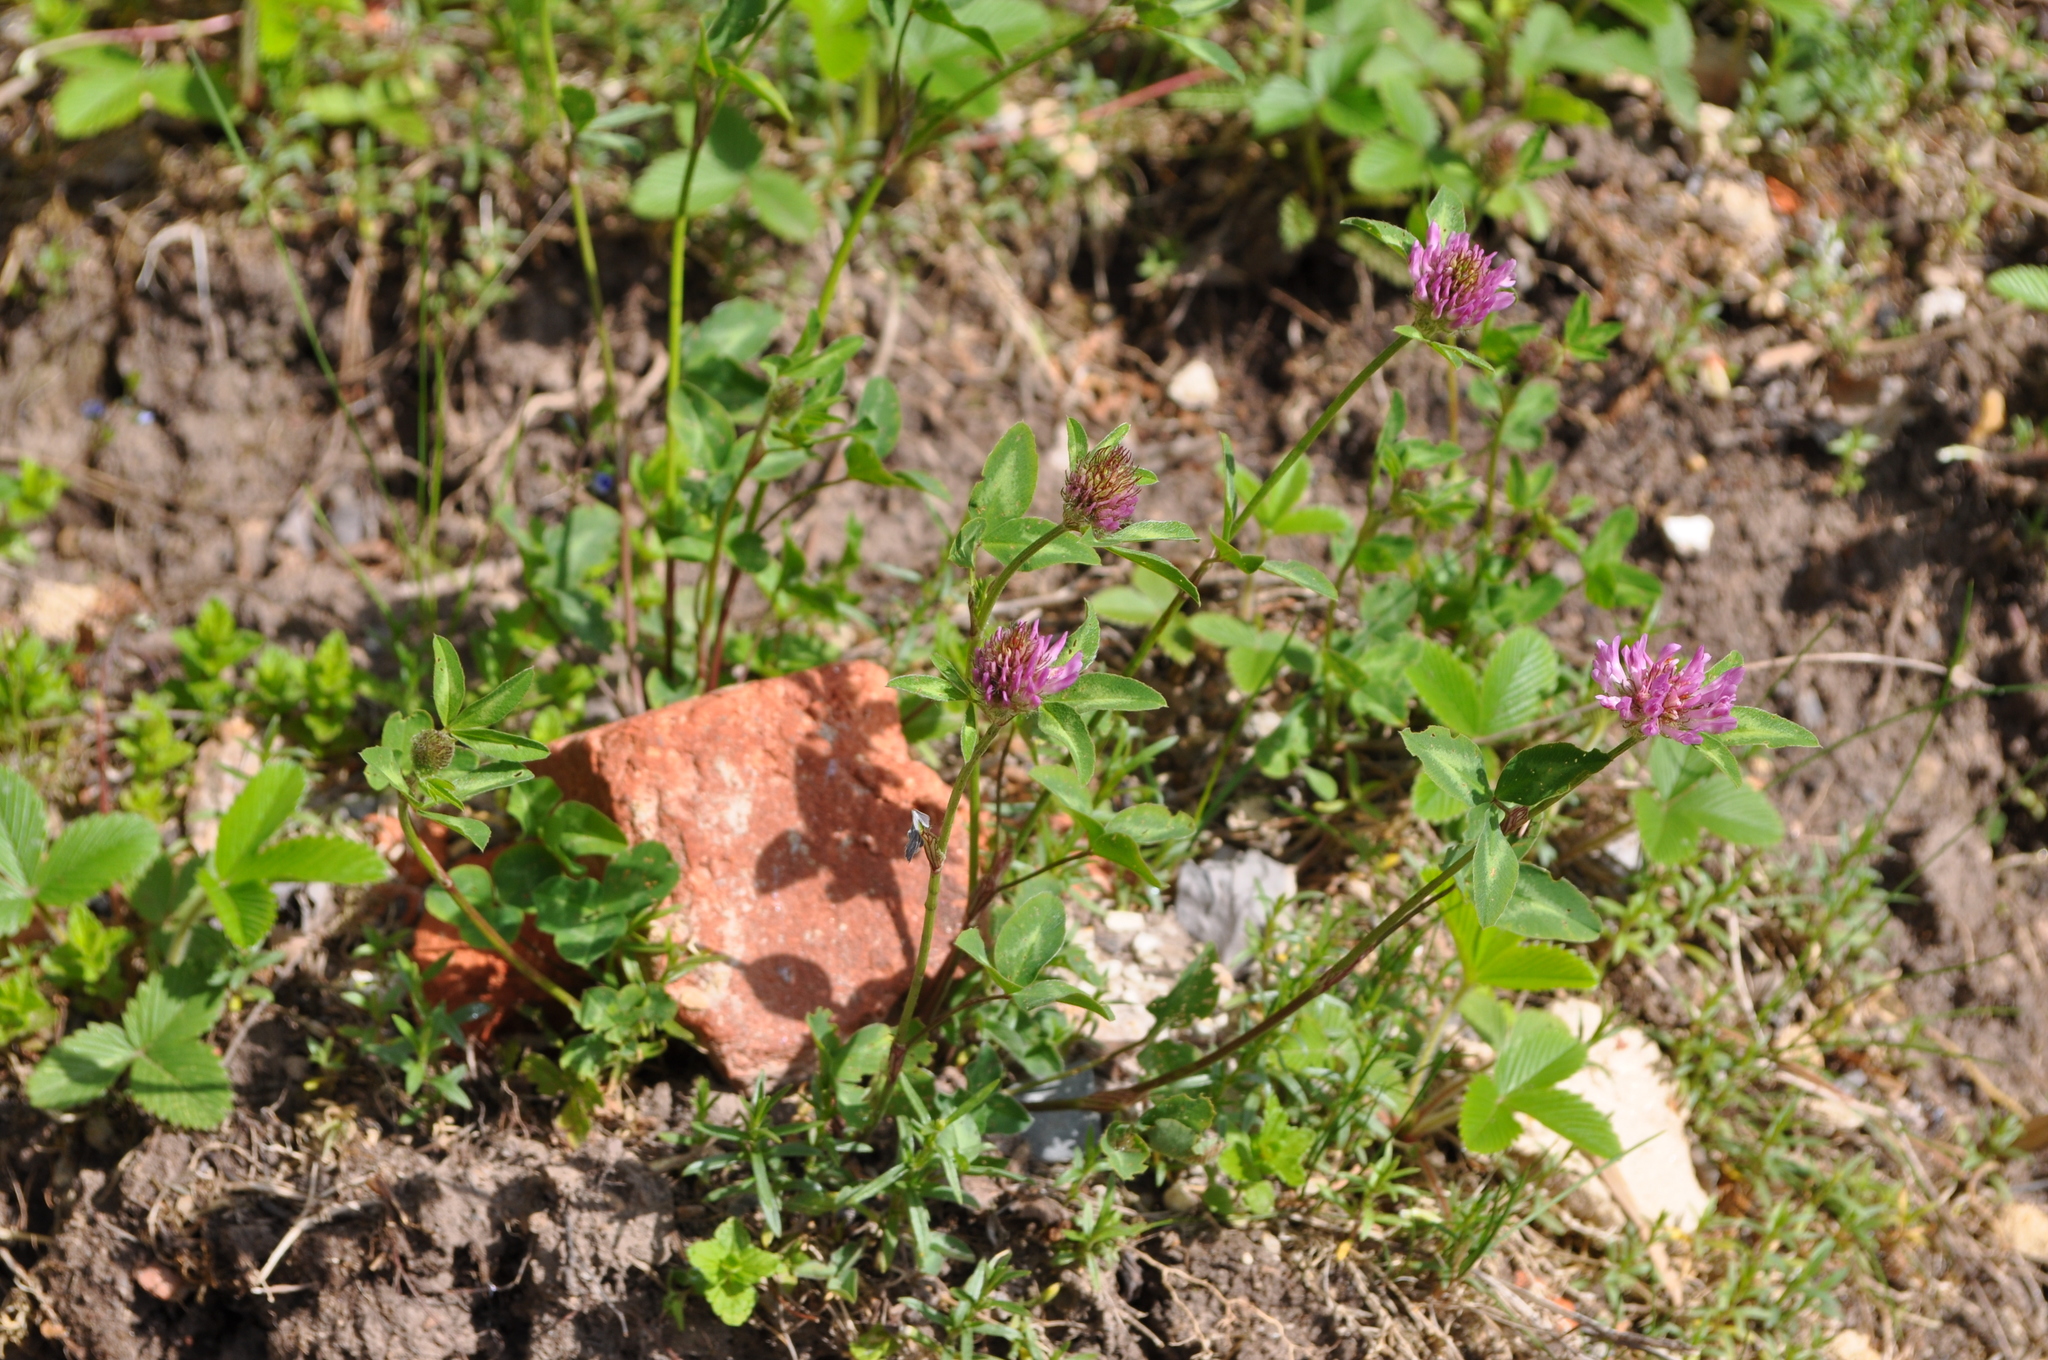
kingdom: Plantae
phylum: Tracheophyta
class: Magnoliopsida
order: Fabales
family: Fabaceae
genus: Trifolium
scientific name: Trifolium pratense
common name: Red clover
